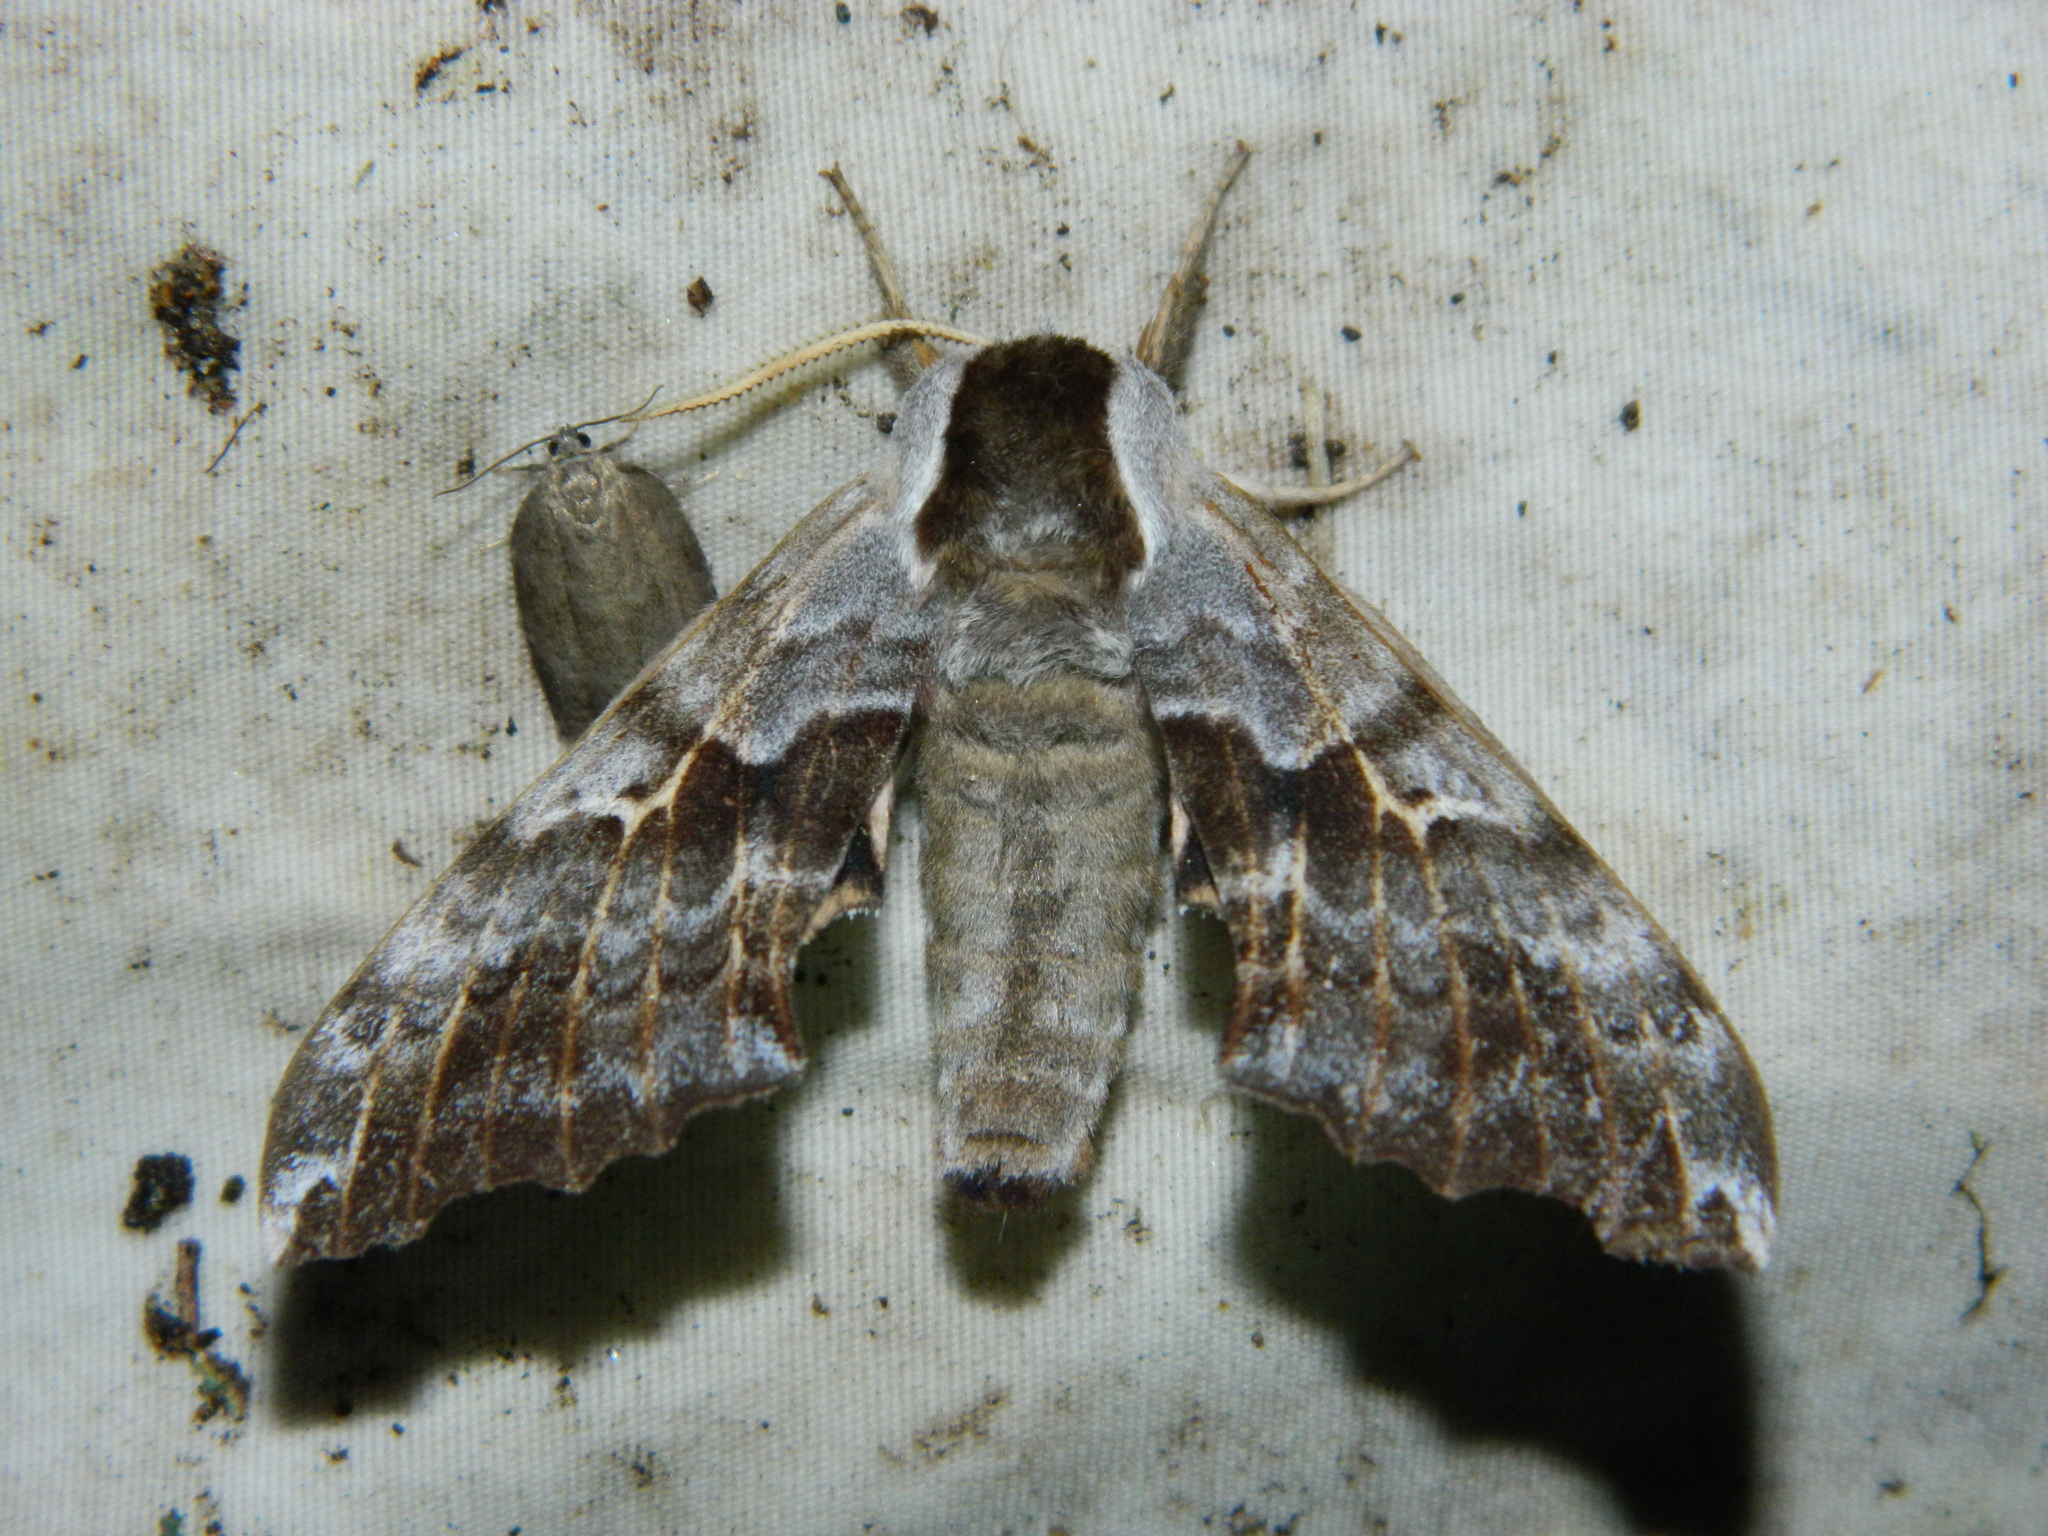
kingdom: Animalia
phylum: Arthropoda
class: Insecta
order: Lepidoptera
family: Sphingidae
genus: Smerinthus
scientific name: Smerinthus cerisyi
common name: Cerisy's sphinx moth
